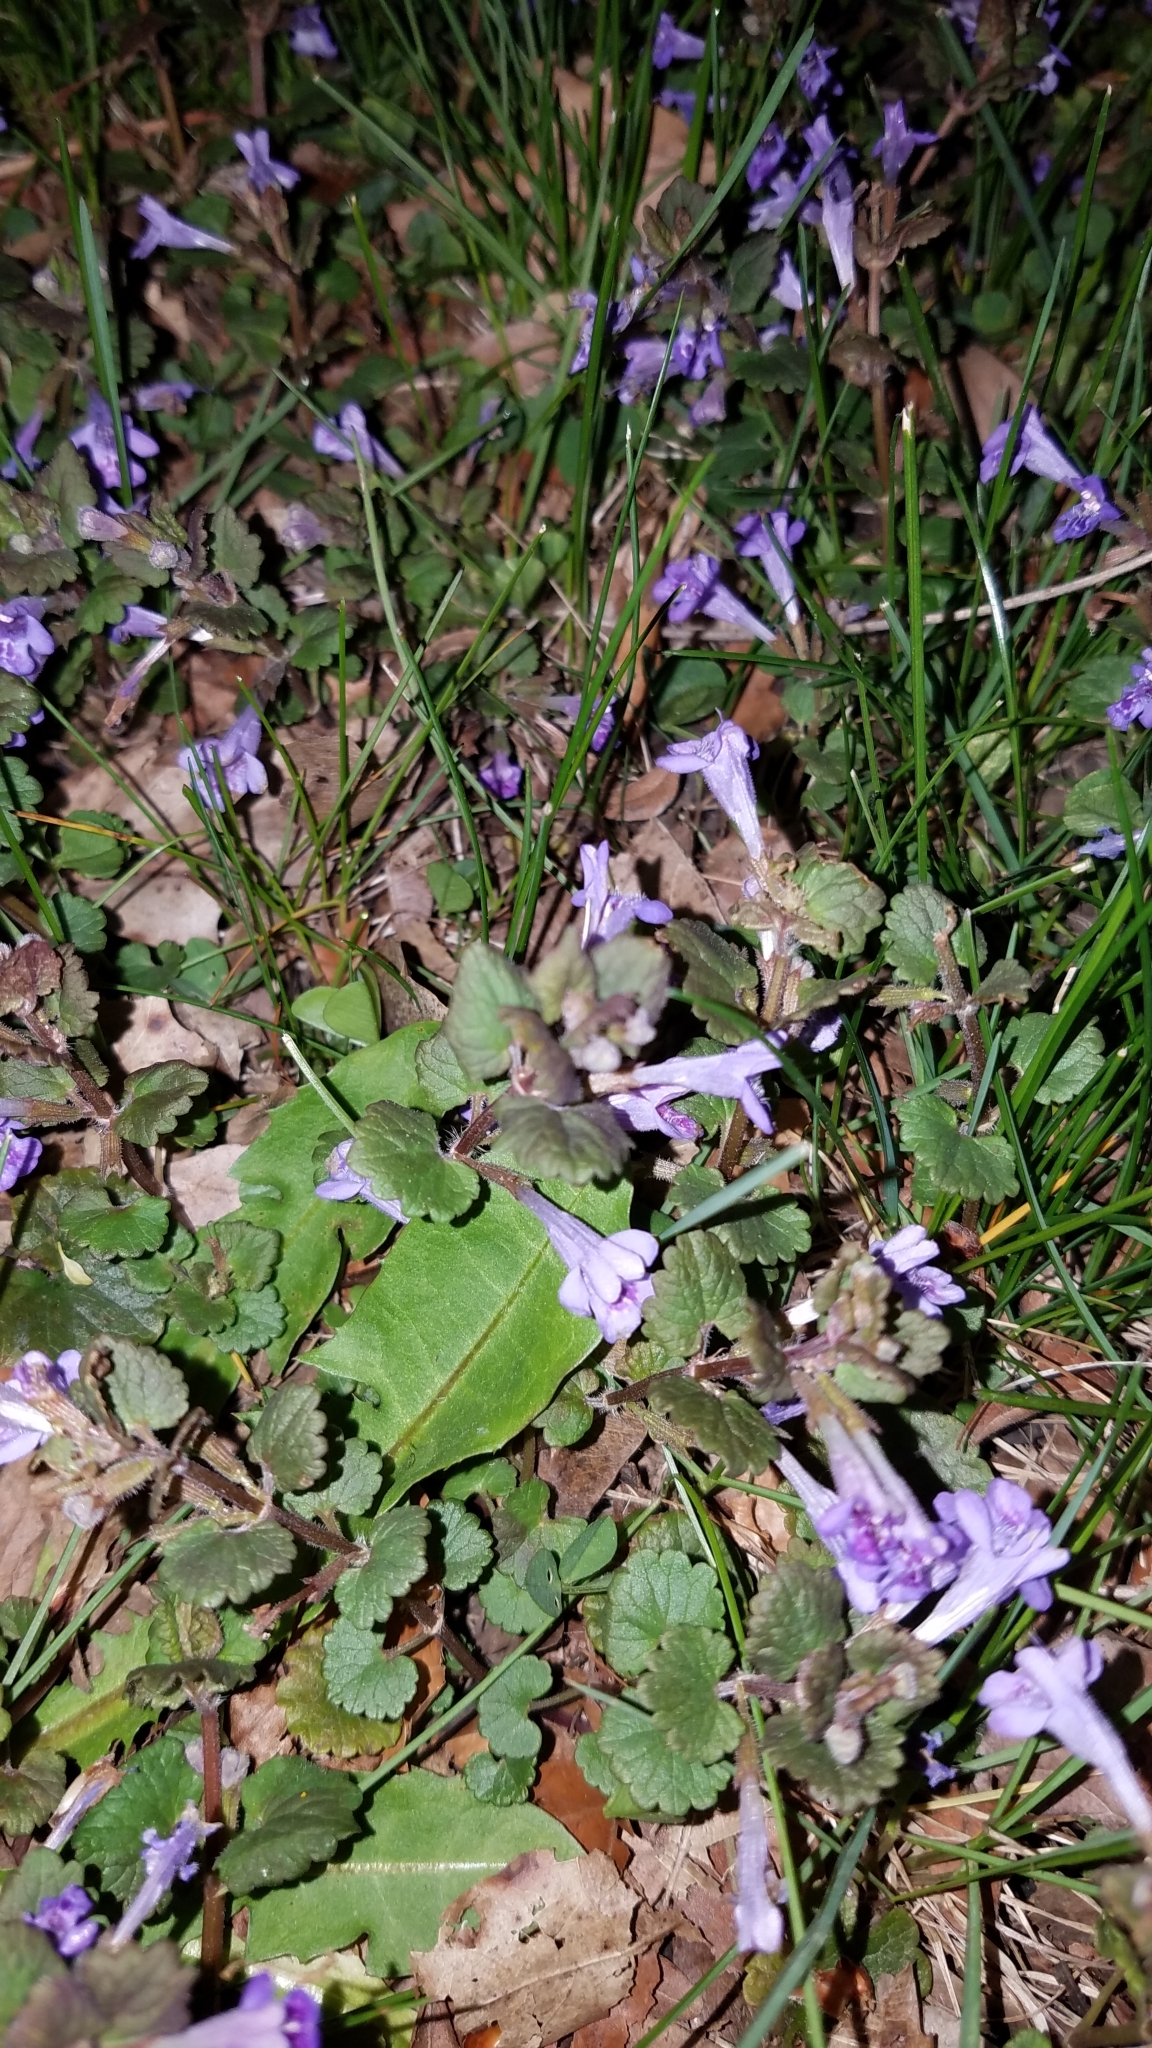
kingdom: Plantae
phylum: Tracheophyta
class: Magnoliopsida
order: Lamiales
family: Lamiaceae
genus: Glechoma
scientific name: Glechoma hederacea
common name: Ground ivy
